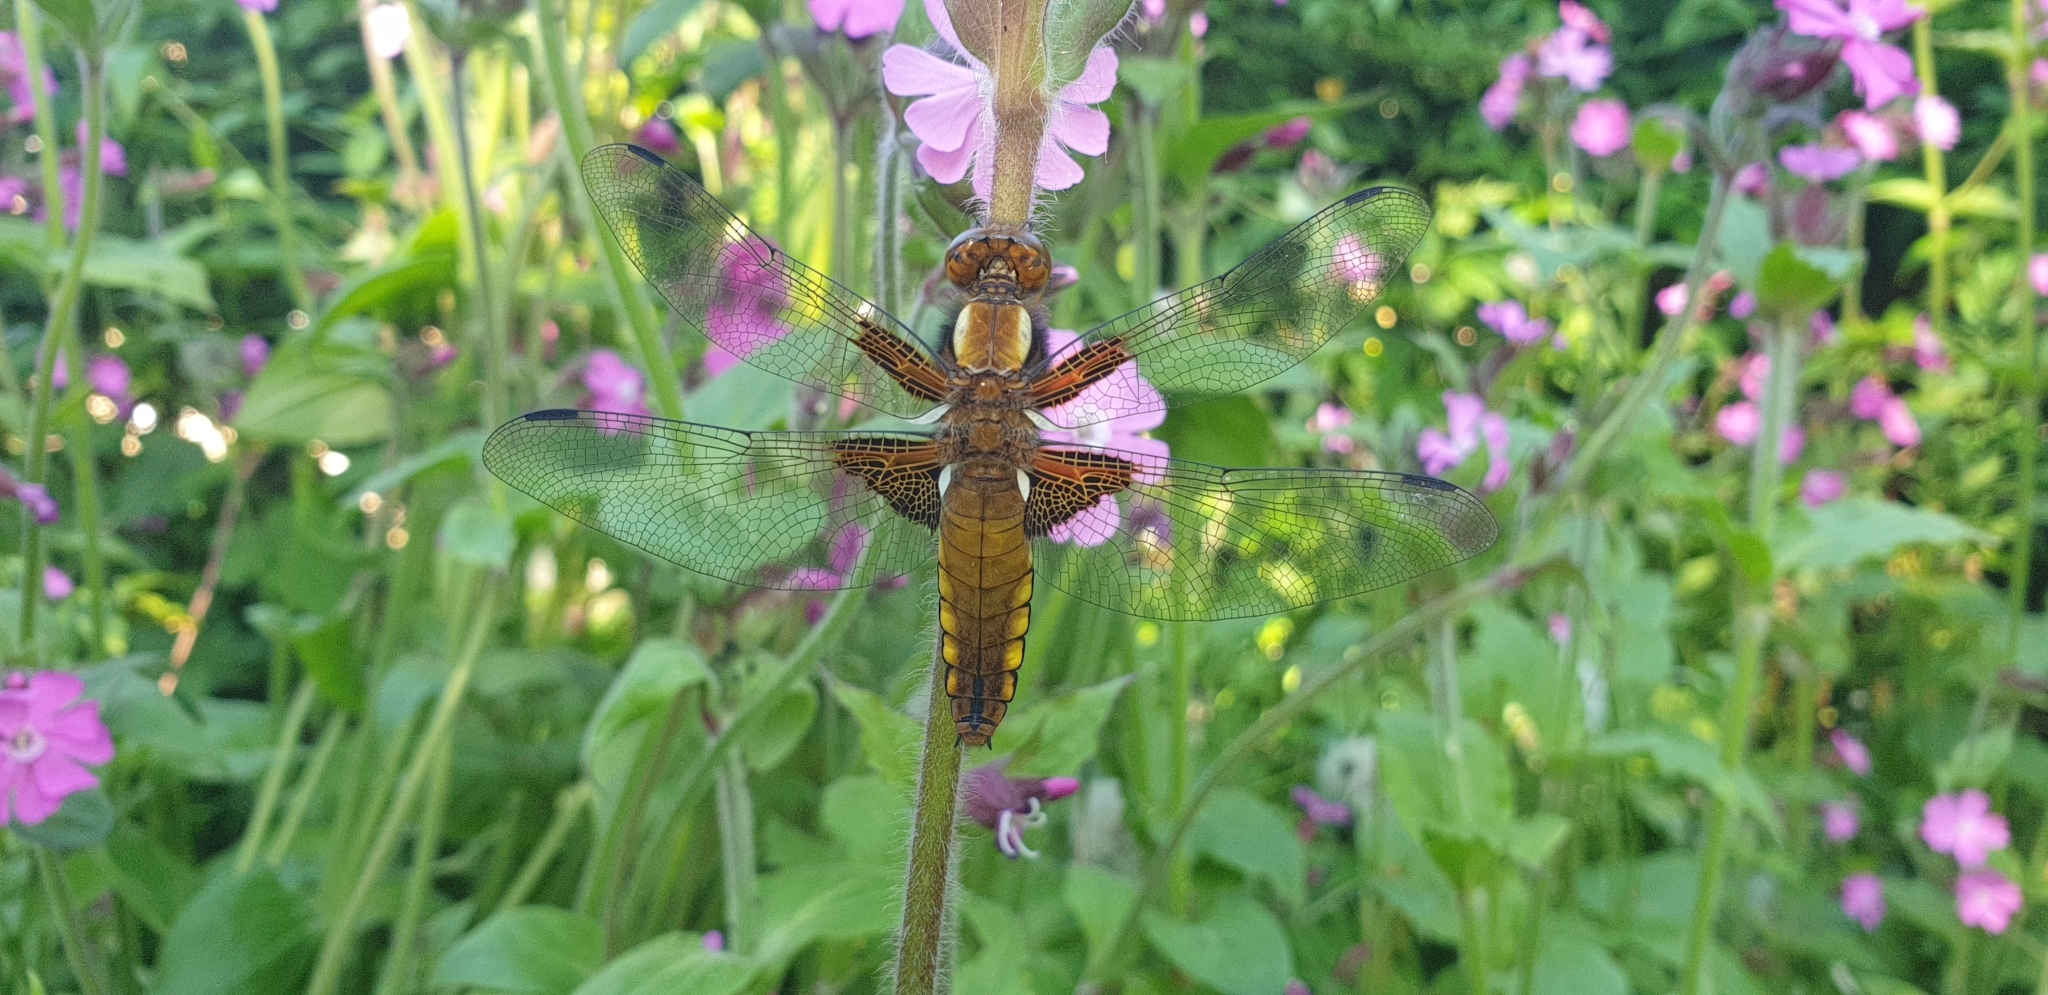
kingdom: Animalia
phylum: Arthropoda
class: Insecta
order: Odonata
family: Libellulidae
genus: Libellula
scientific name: Libellula depressa
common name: Broad-bodied chaser
